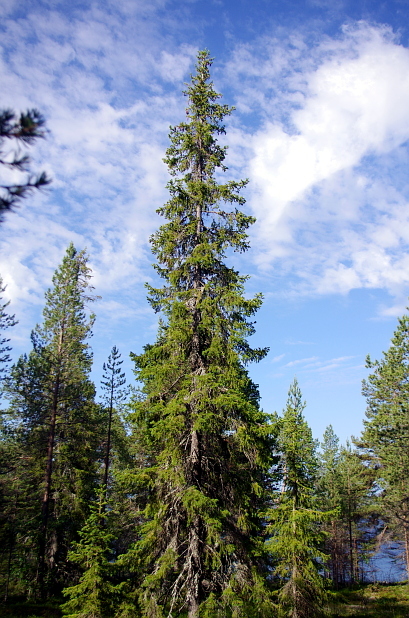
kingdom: Plantae
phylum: Tracheophyta
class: Pinopsida
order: Pinales
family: Pinaceae
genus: Picea
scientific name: Picea obovata
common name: Siberian spruce
